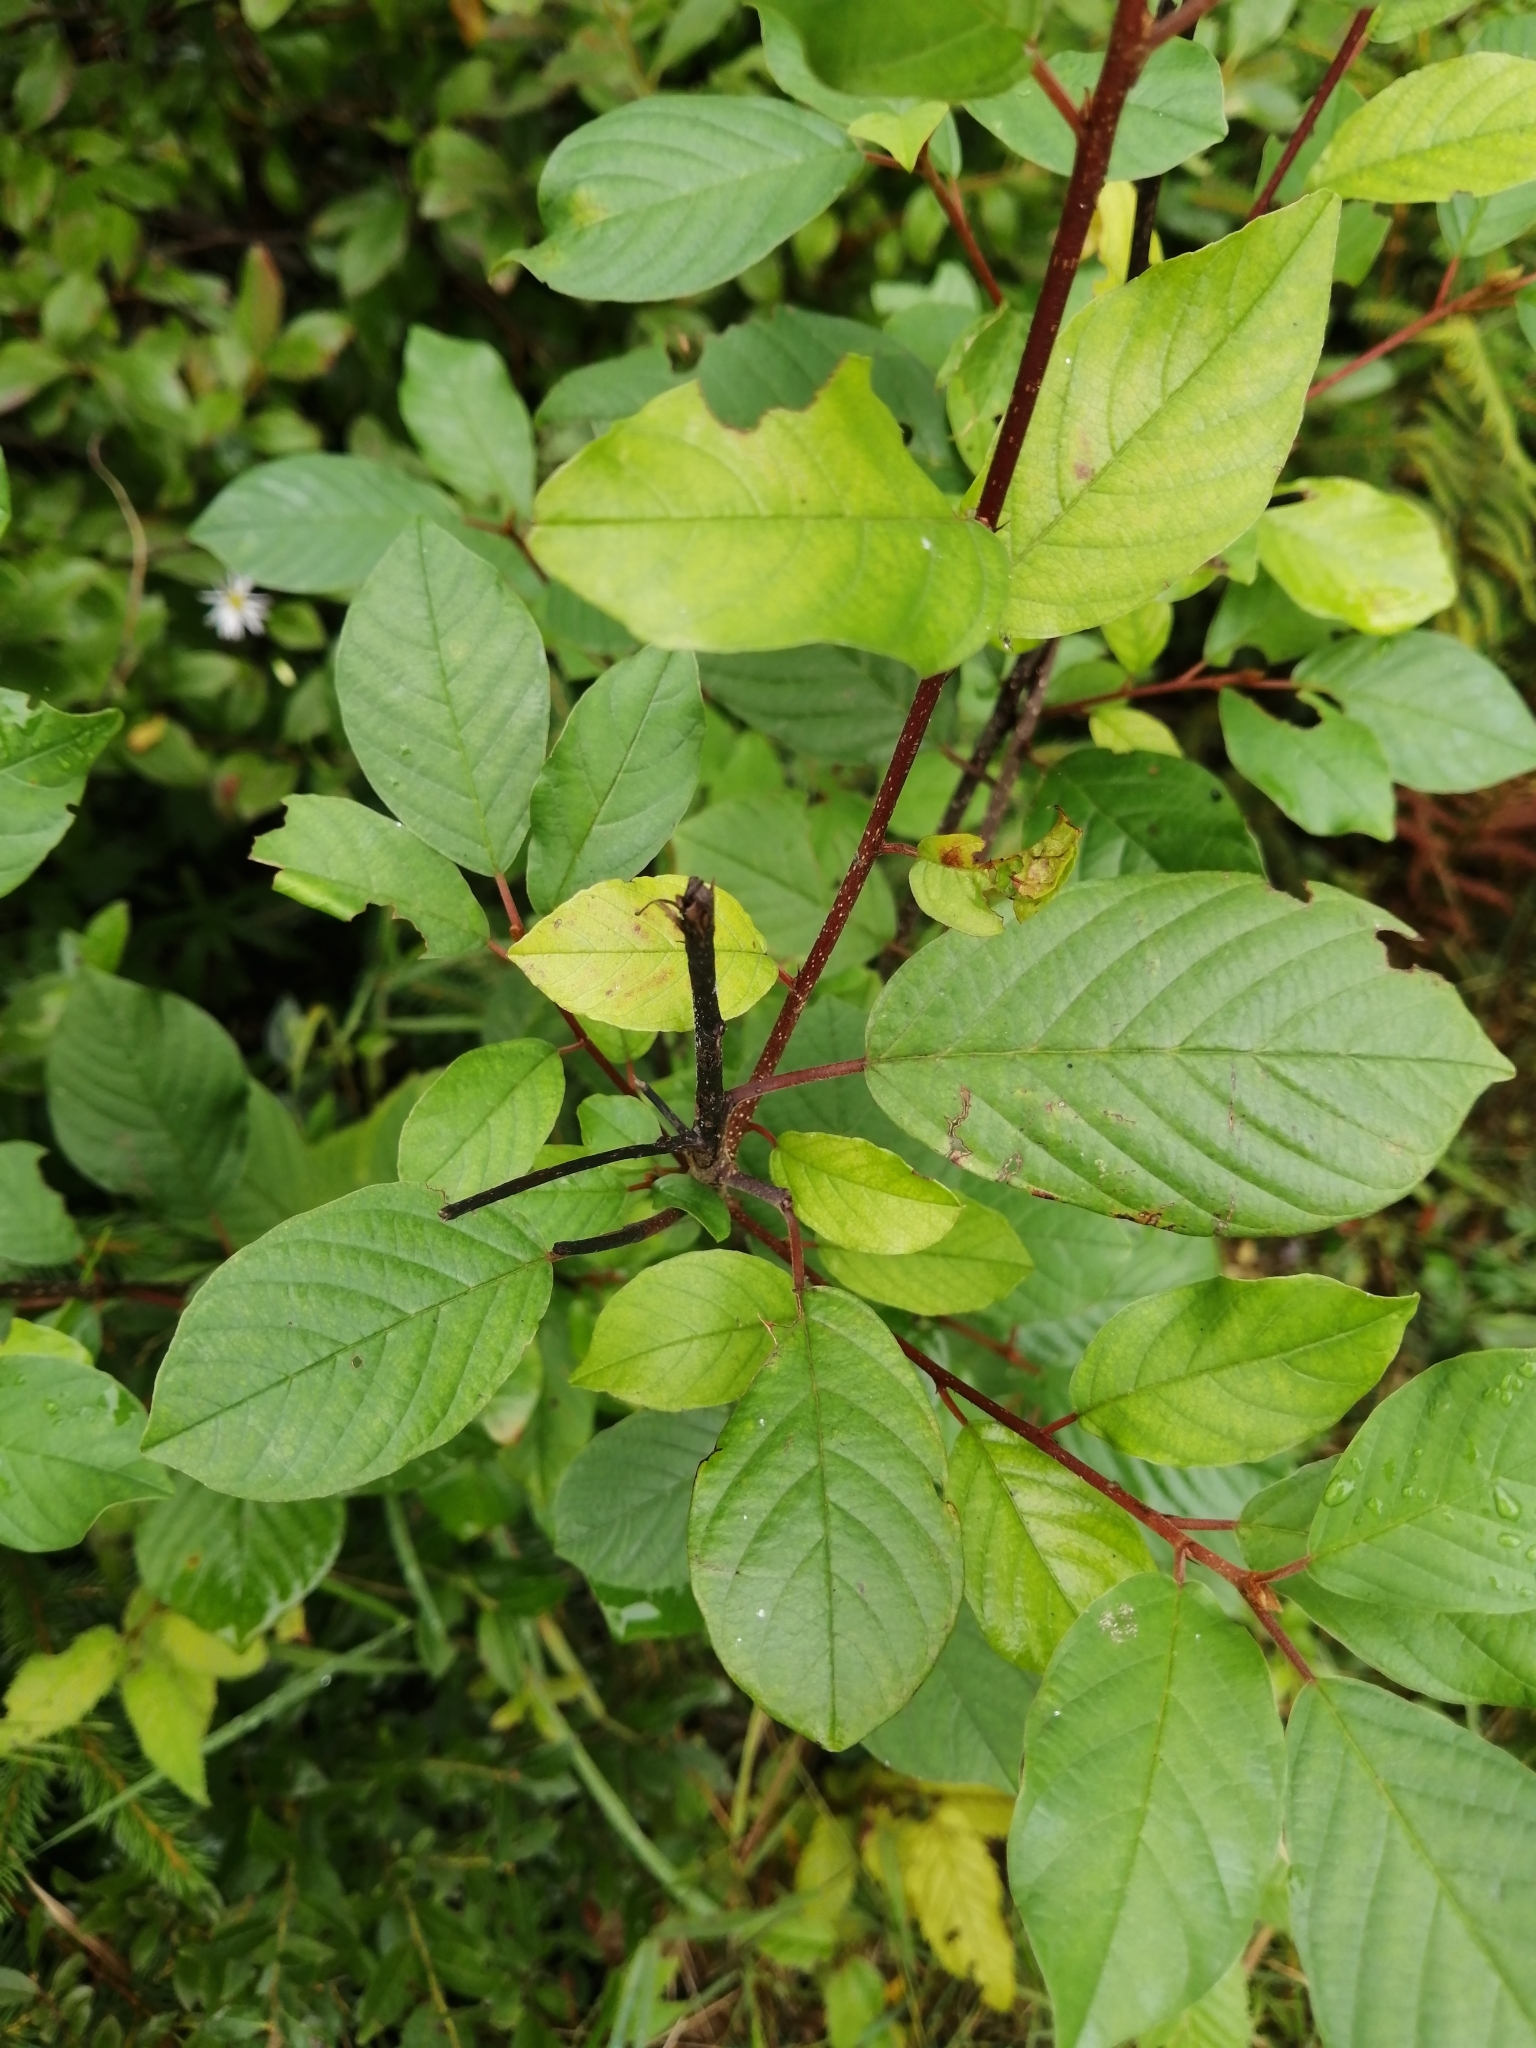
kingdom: Plantae
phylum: Tracheophyta
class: Magnoliopsida
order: Rosales
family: Rhamnaceae
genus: Frangula
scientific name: Frangula alnus
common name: Alder buckthorn
